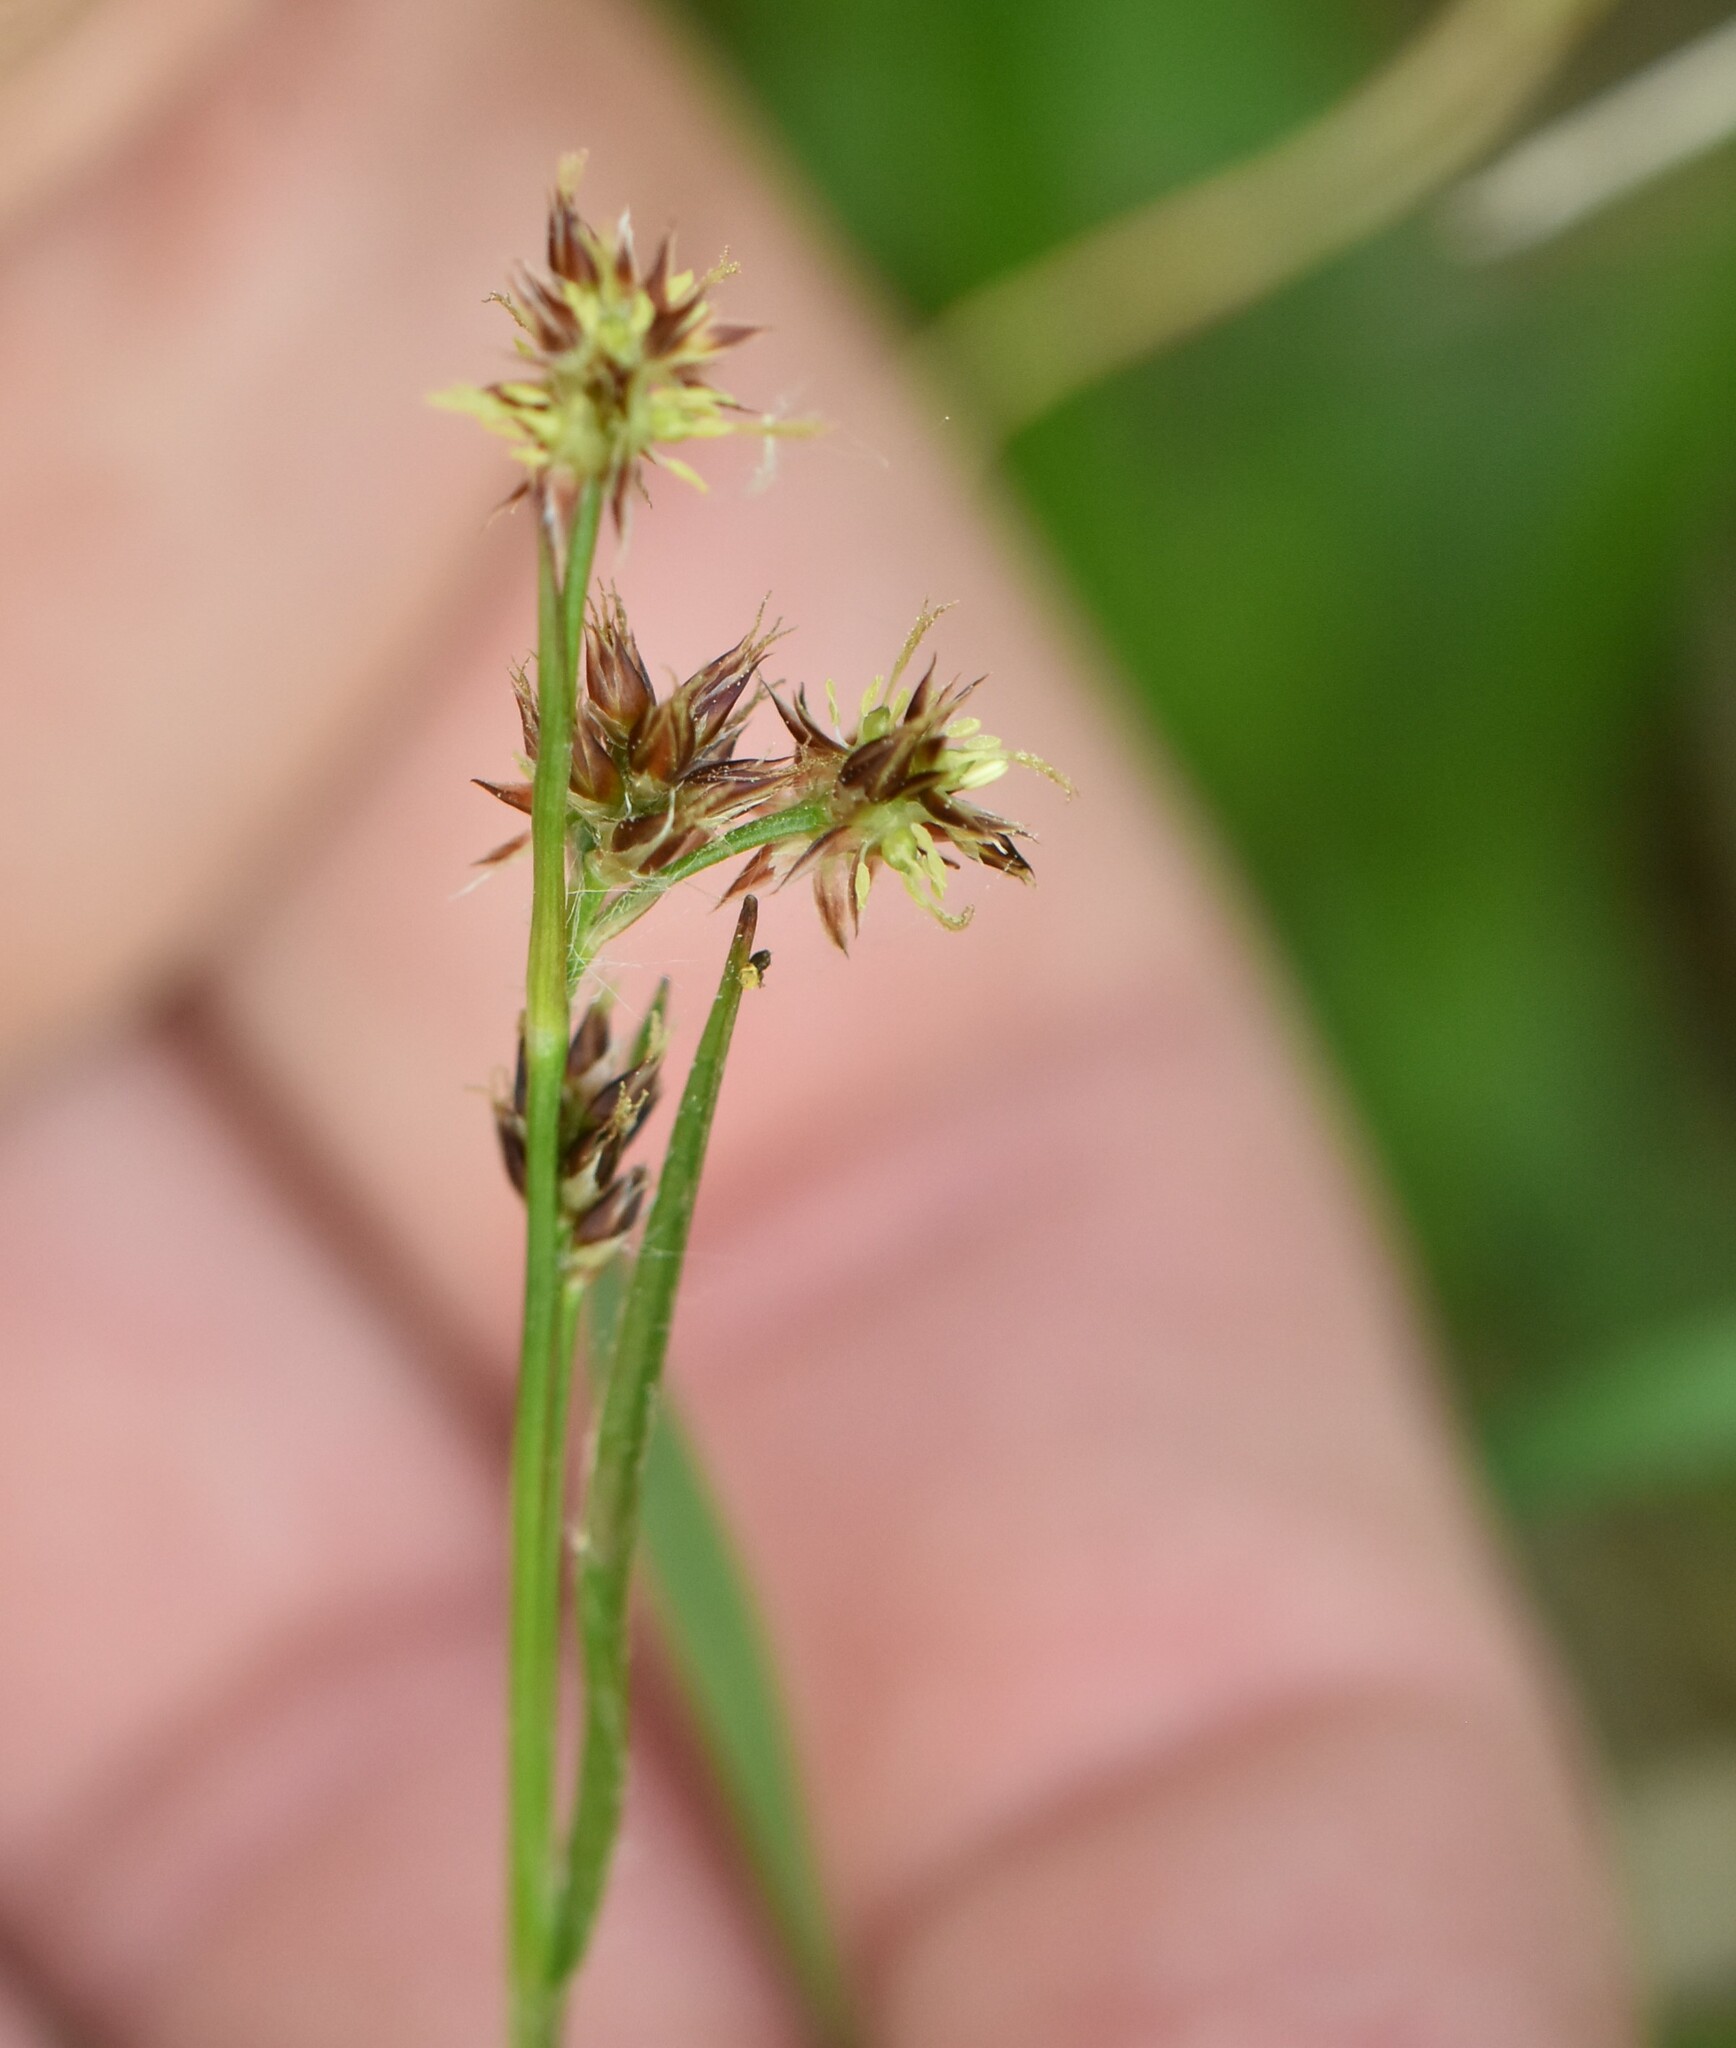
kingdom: Plantae
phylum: Tracheophyta
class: Liliopsida
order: Poales
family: Juncaceae
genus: Luzula
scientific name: Luzula multiflora
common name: Heath wood-rush
